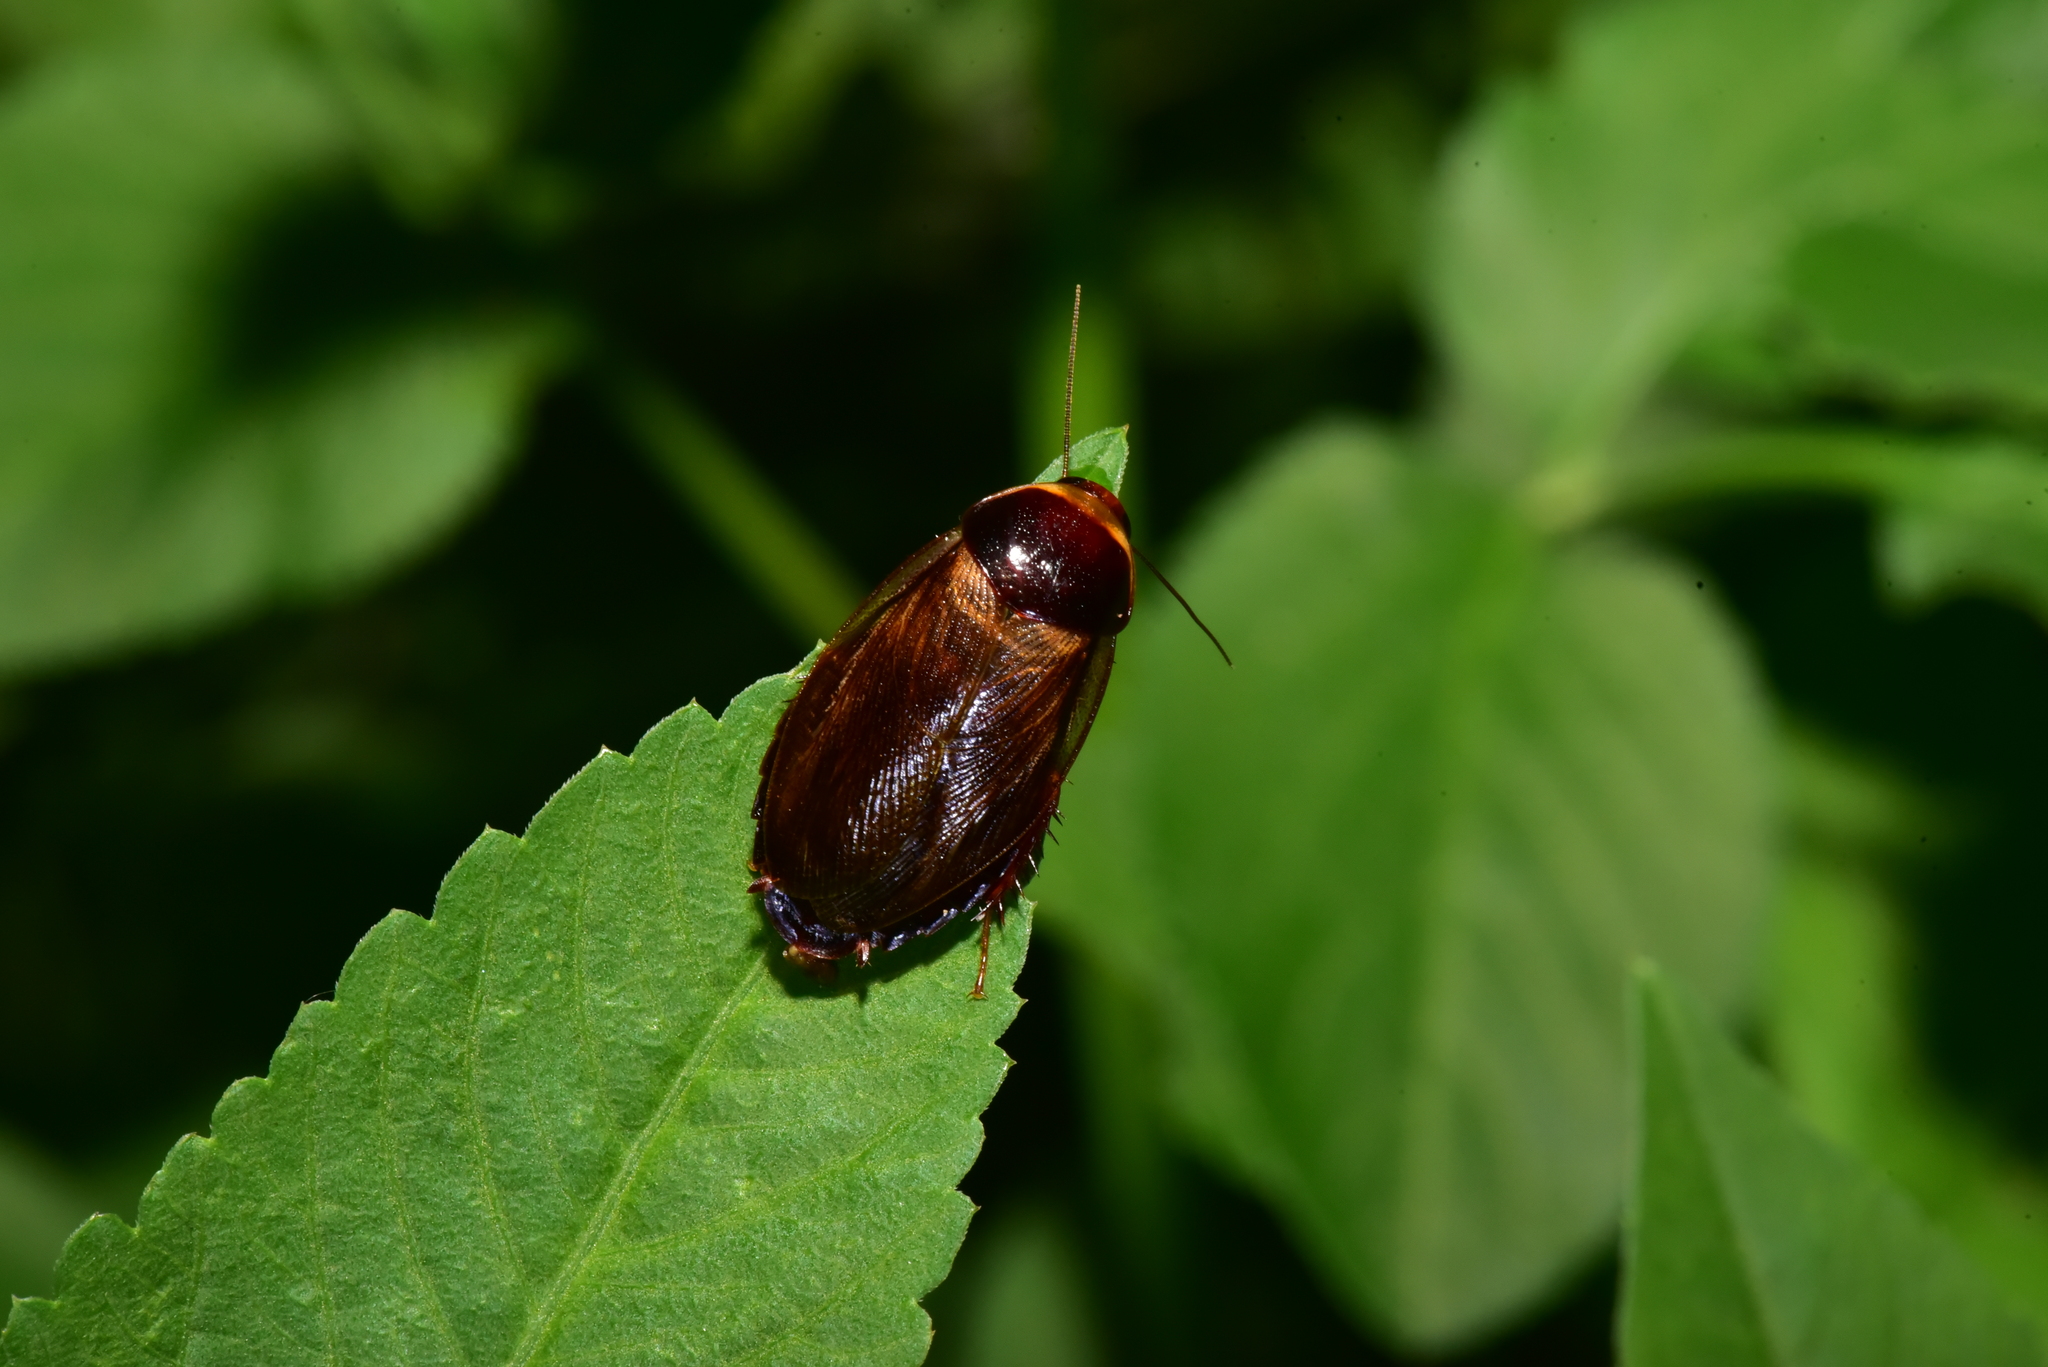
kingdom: Animalia
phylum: Arthropoda
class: Insecta
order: Blattodea
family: Blaberidae
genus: Pycnoscelus
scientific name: Pycnoscelus indicus
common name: Burrowing cockroach
